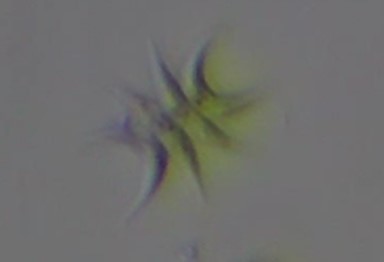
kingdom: Plantae
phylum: Chlorophyta
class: Chlorophyceae
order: Sphaeropleales
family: Scenedesmaceae
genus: Tetradesmus
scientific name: Tetradesmus lagerheimii
